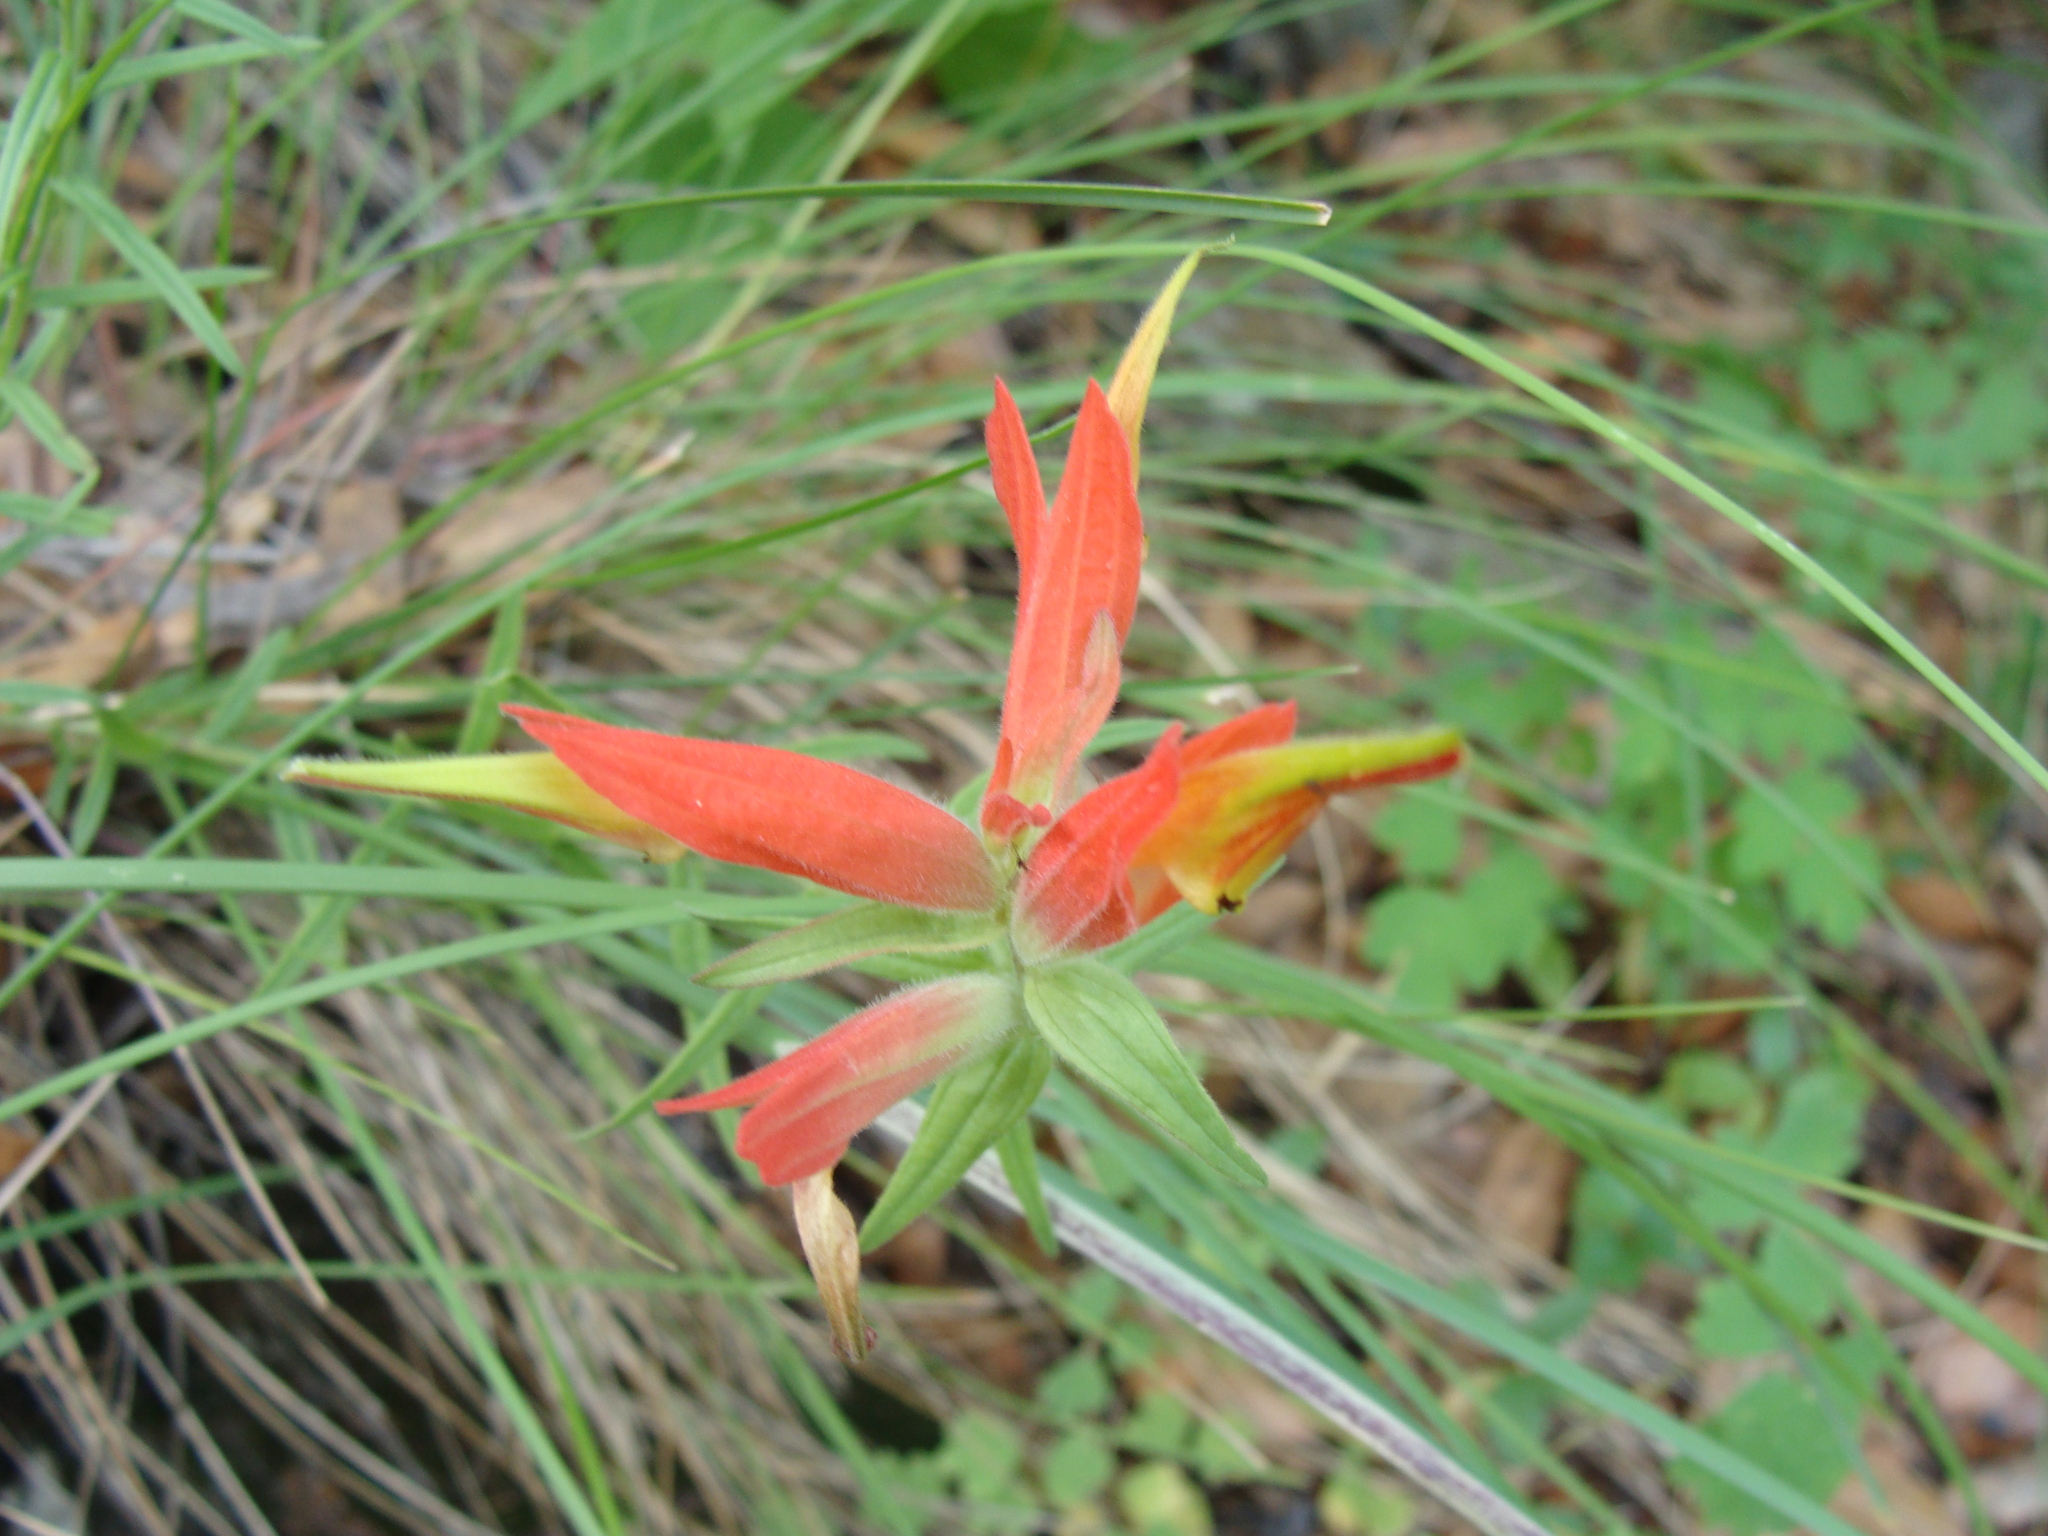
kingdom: Plantae
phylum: Tracheophyta
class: Magnoliopsida
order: Lamiales
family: Orobanchaceae
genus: Castilleja
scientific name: Castilleja tenuiflora
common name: Santa catalina indian paintbrush
